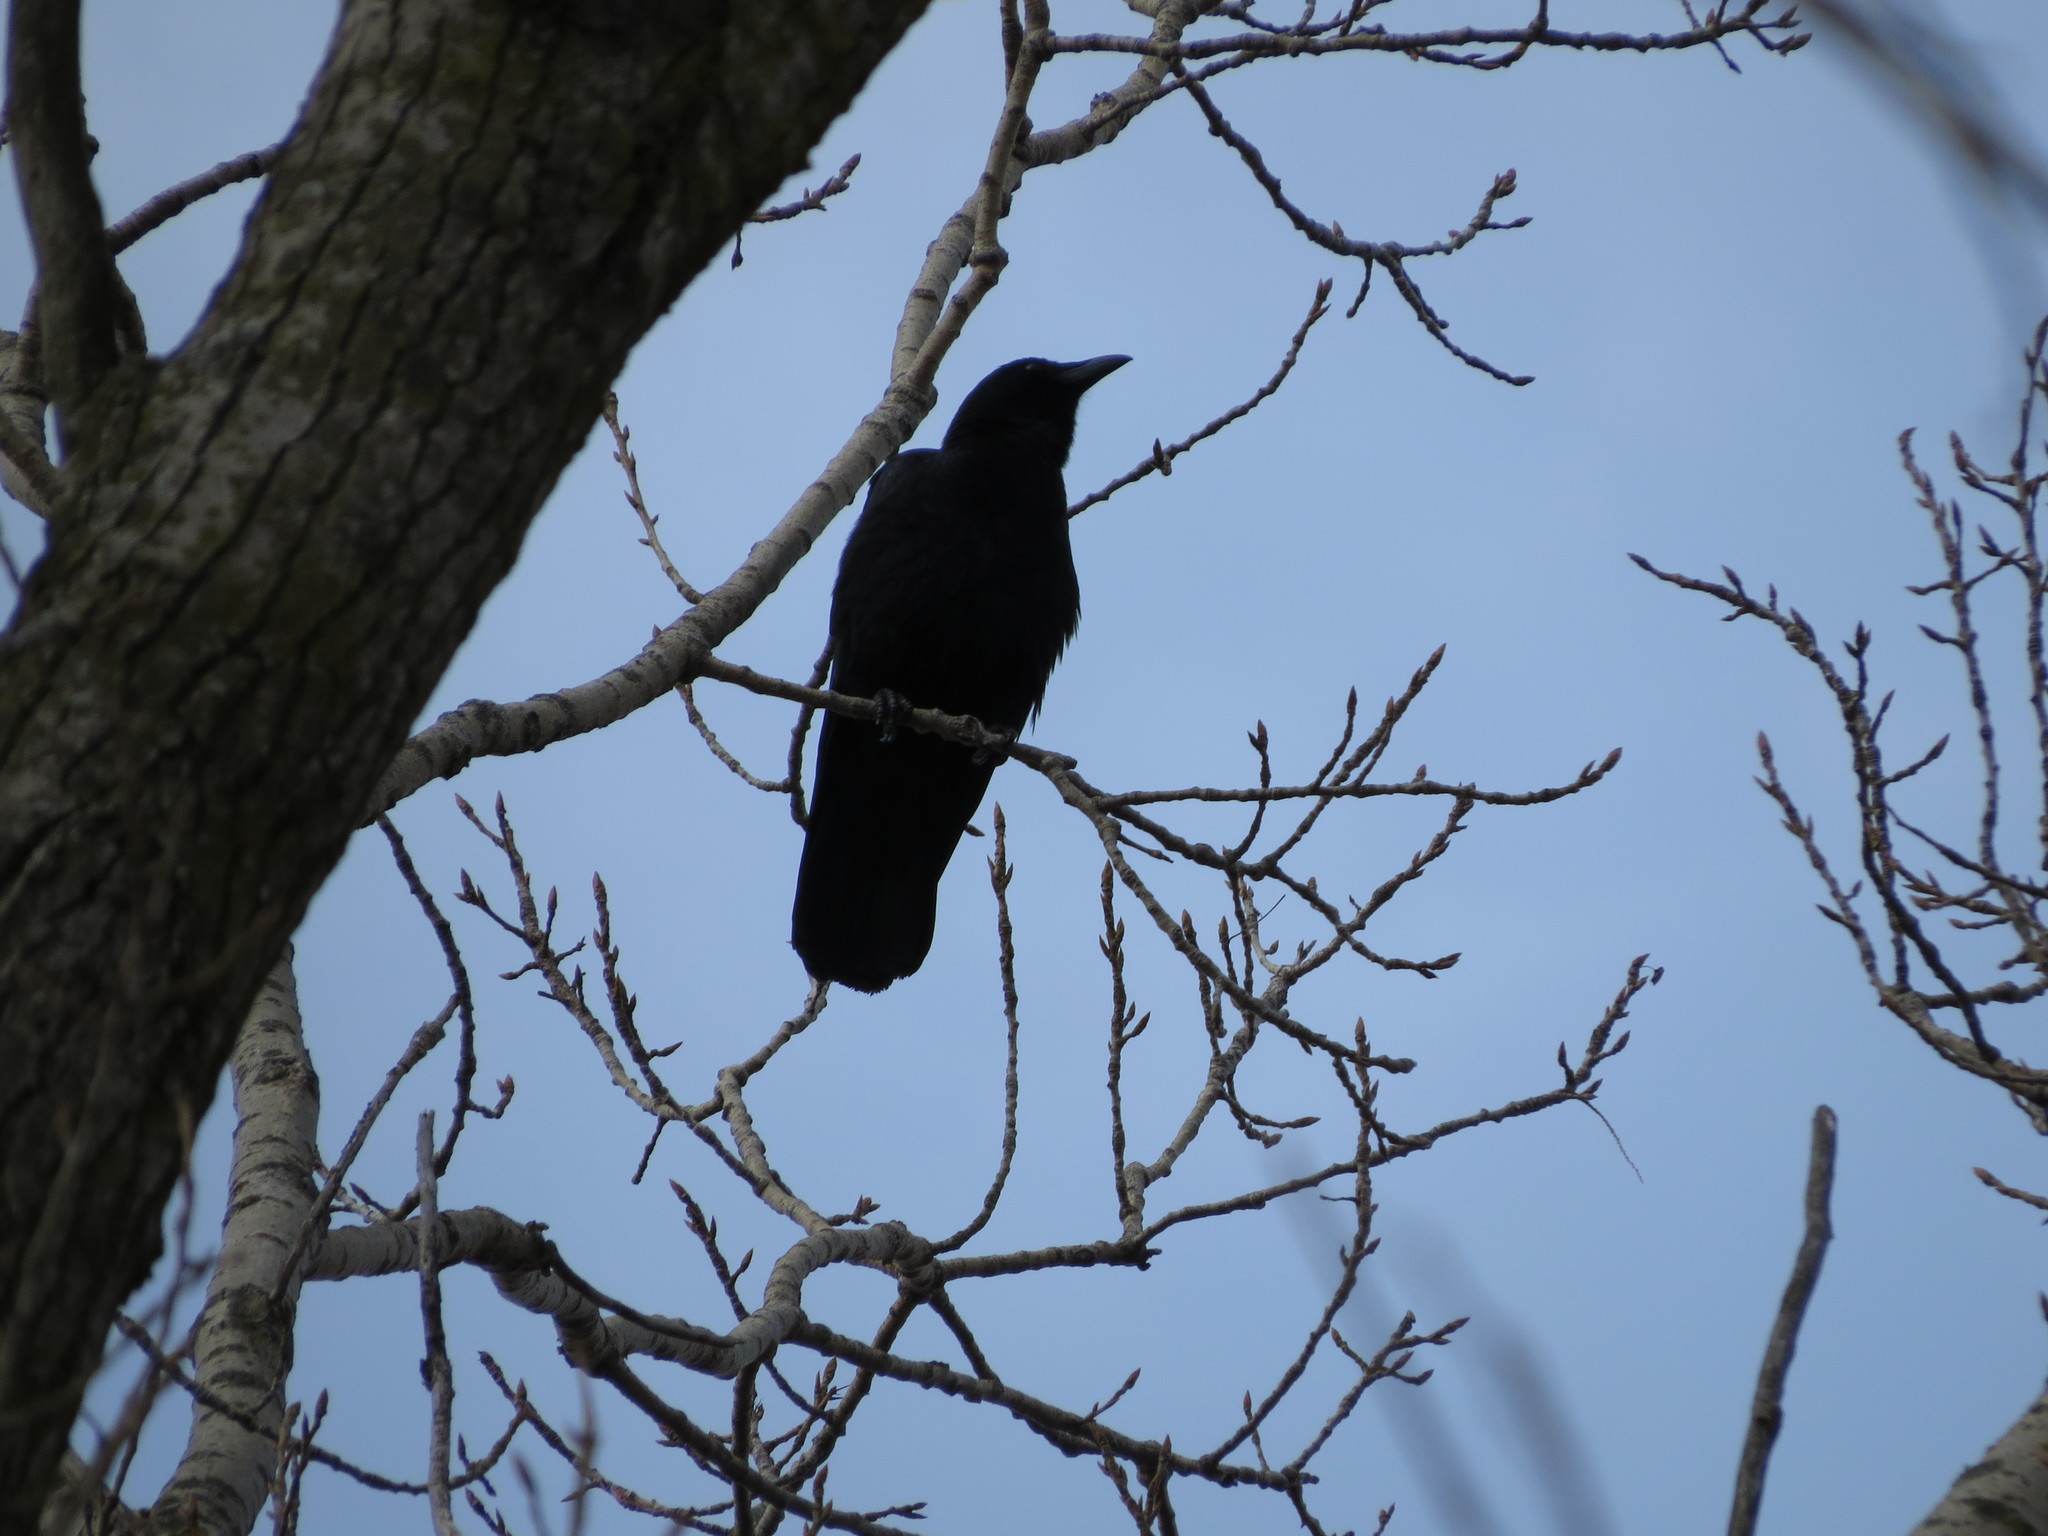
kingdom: Animalia
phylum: Chordata
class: Aves
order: Passeriformes
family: Corvidae
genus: Corvus
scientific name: Corvus brachyrhynchos
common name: American crow
